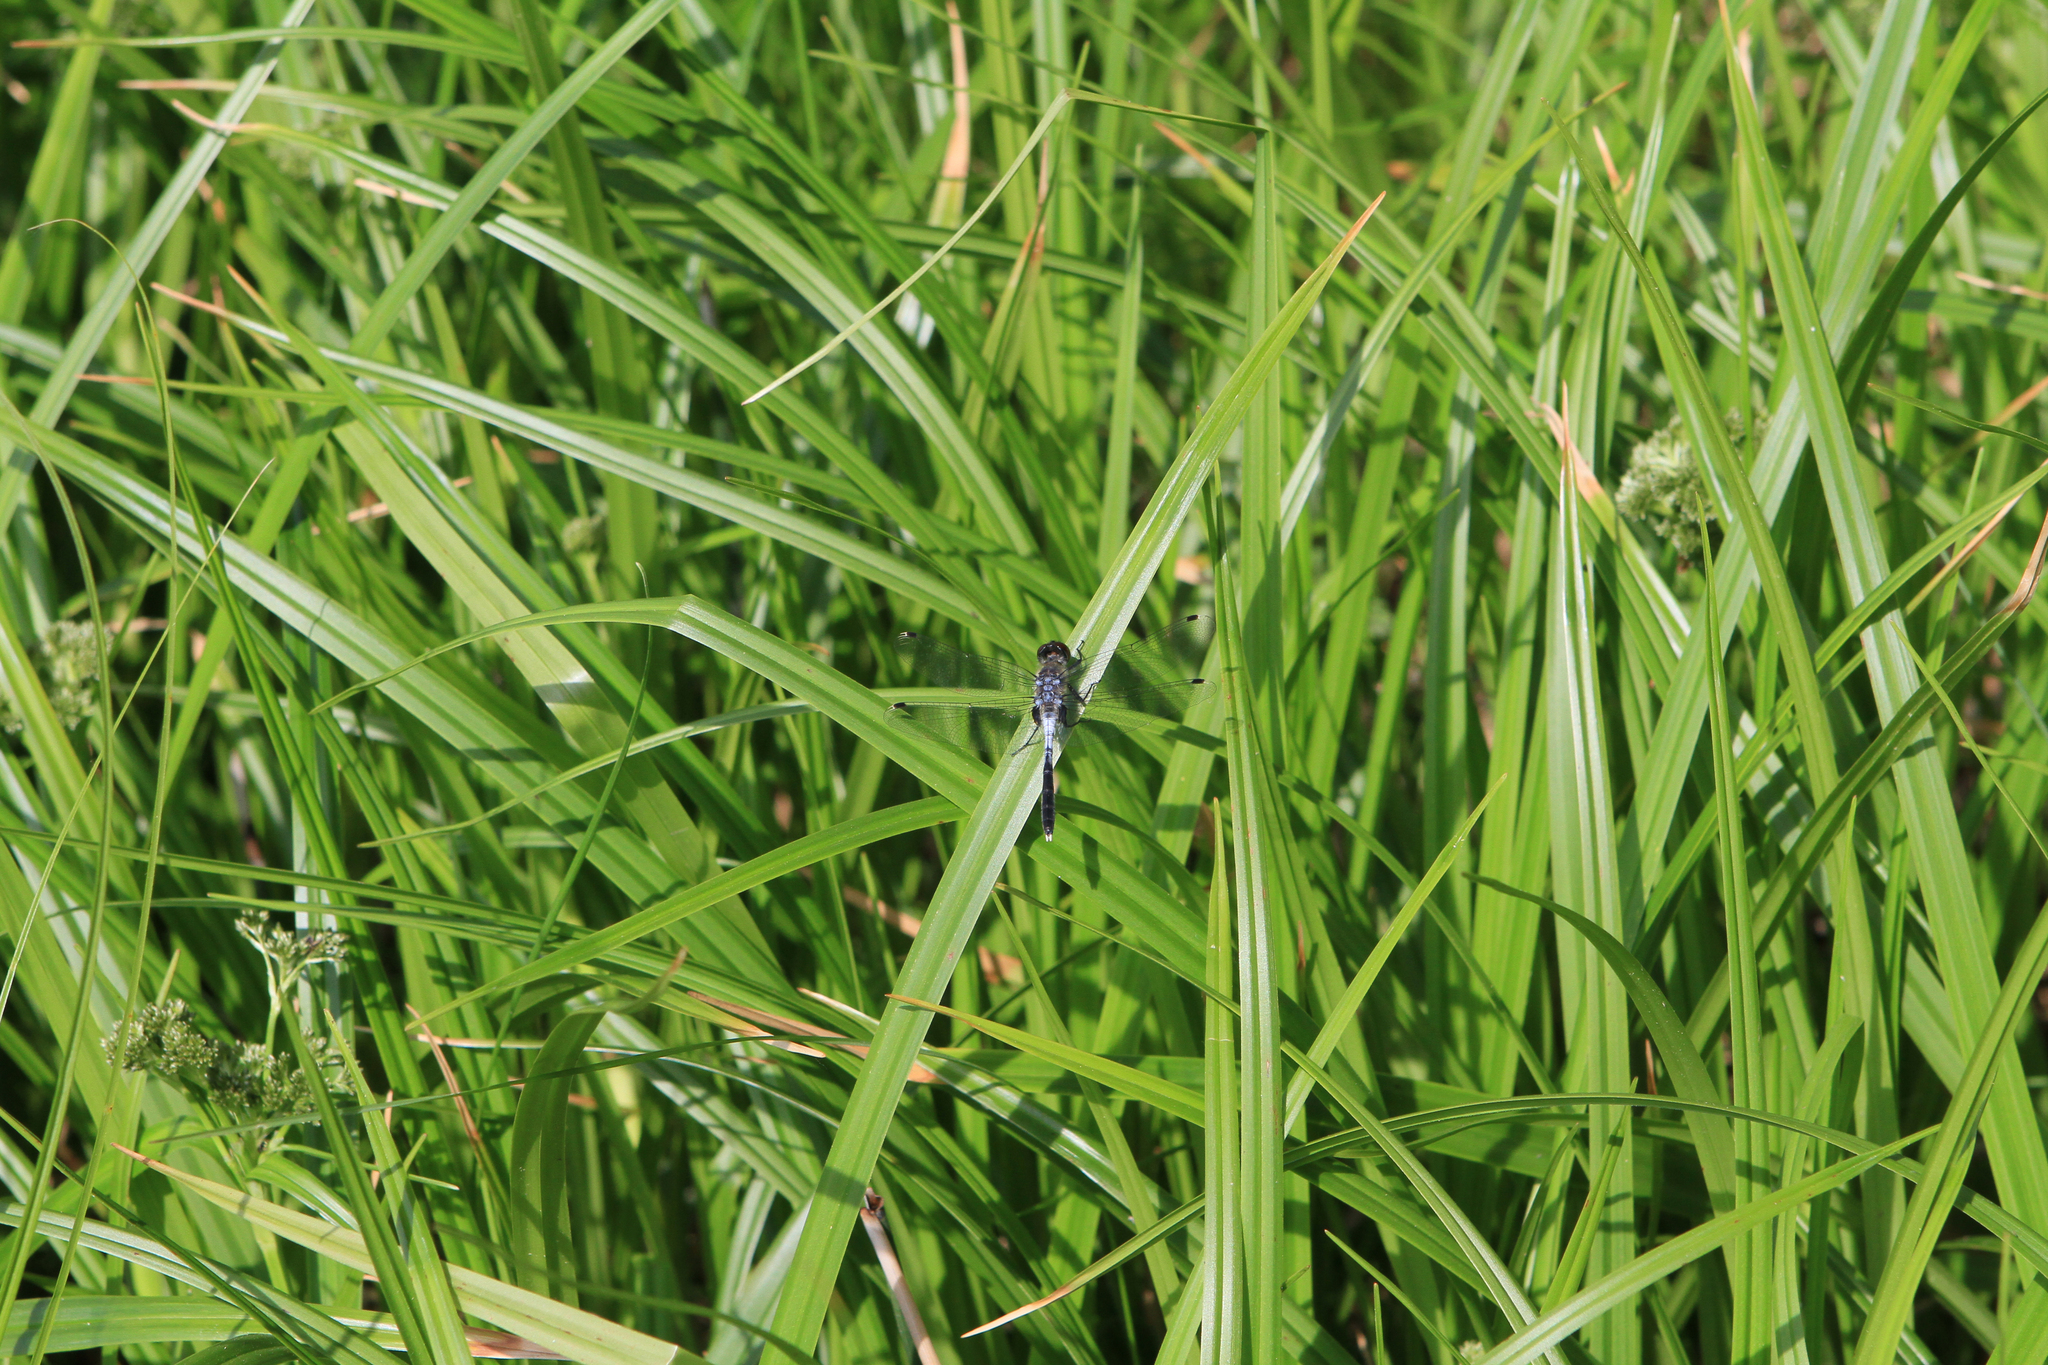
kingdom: Animalia
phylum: Arthropoda
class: Insecta
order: Odonata
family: Libellulidae
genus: Leucorrhinia
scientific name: Leucorrhinia albifrons
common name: Dark whiteface
